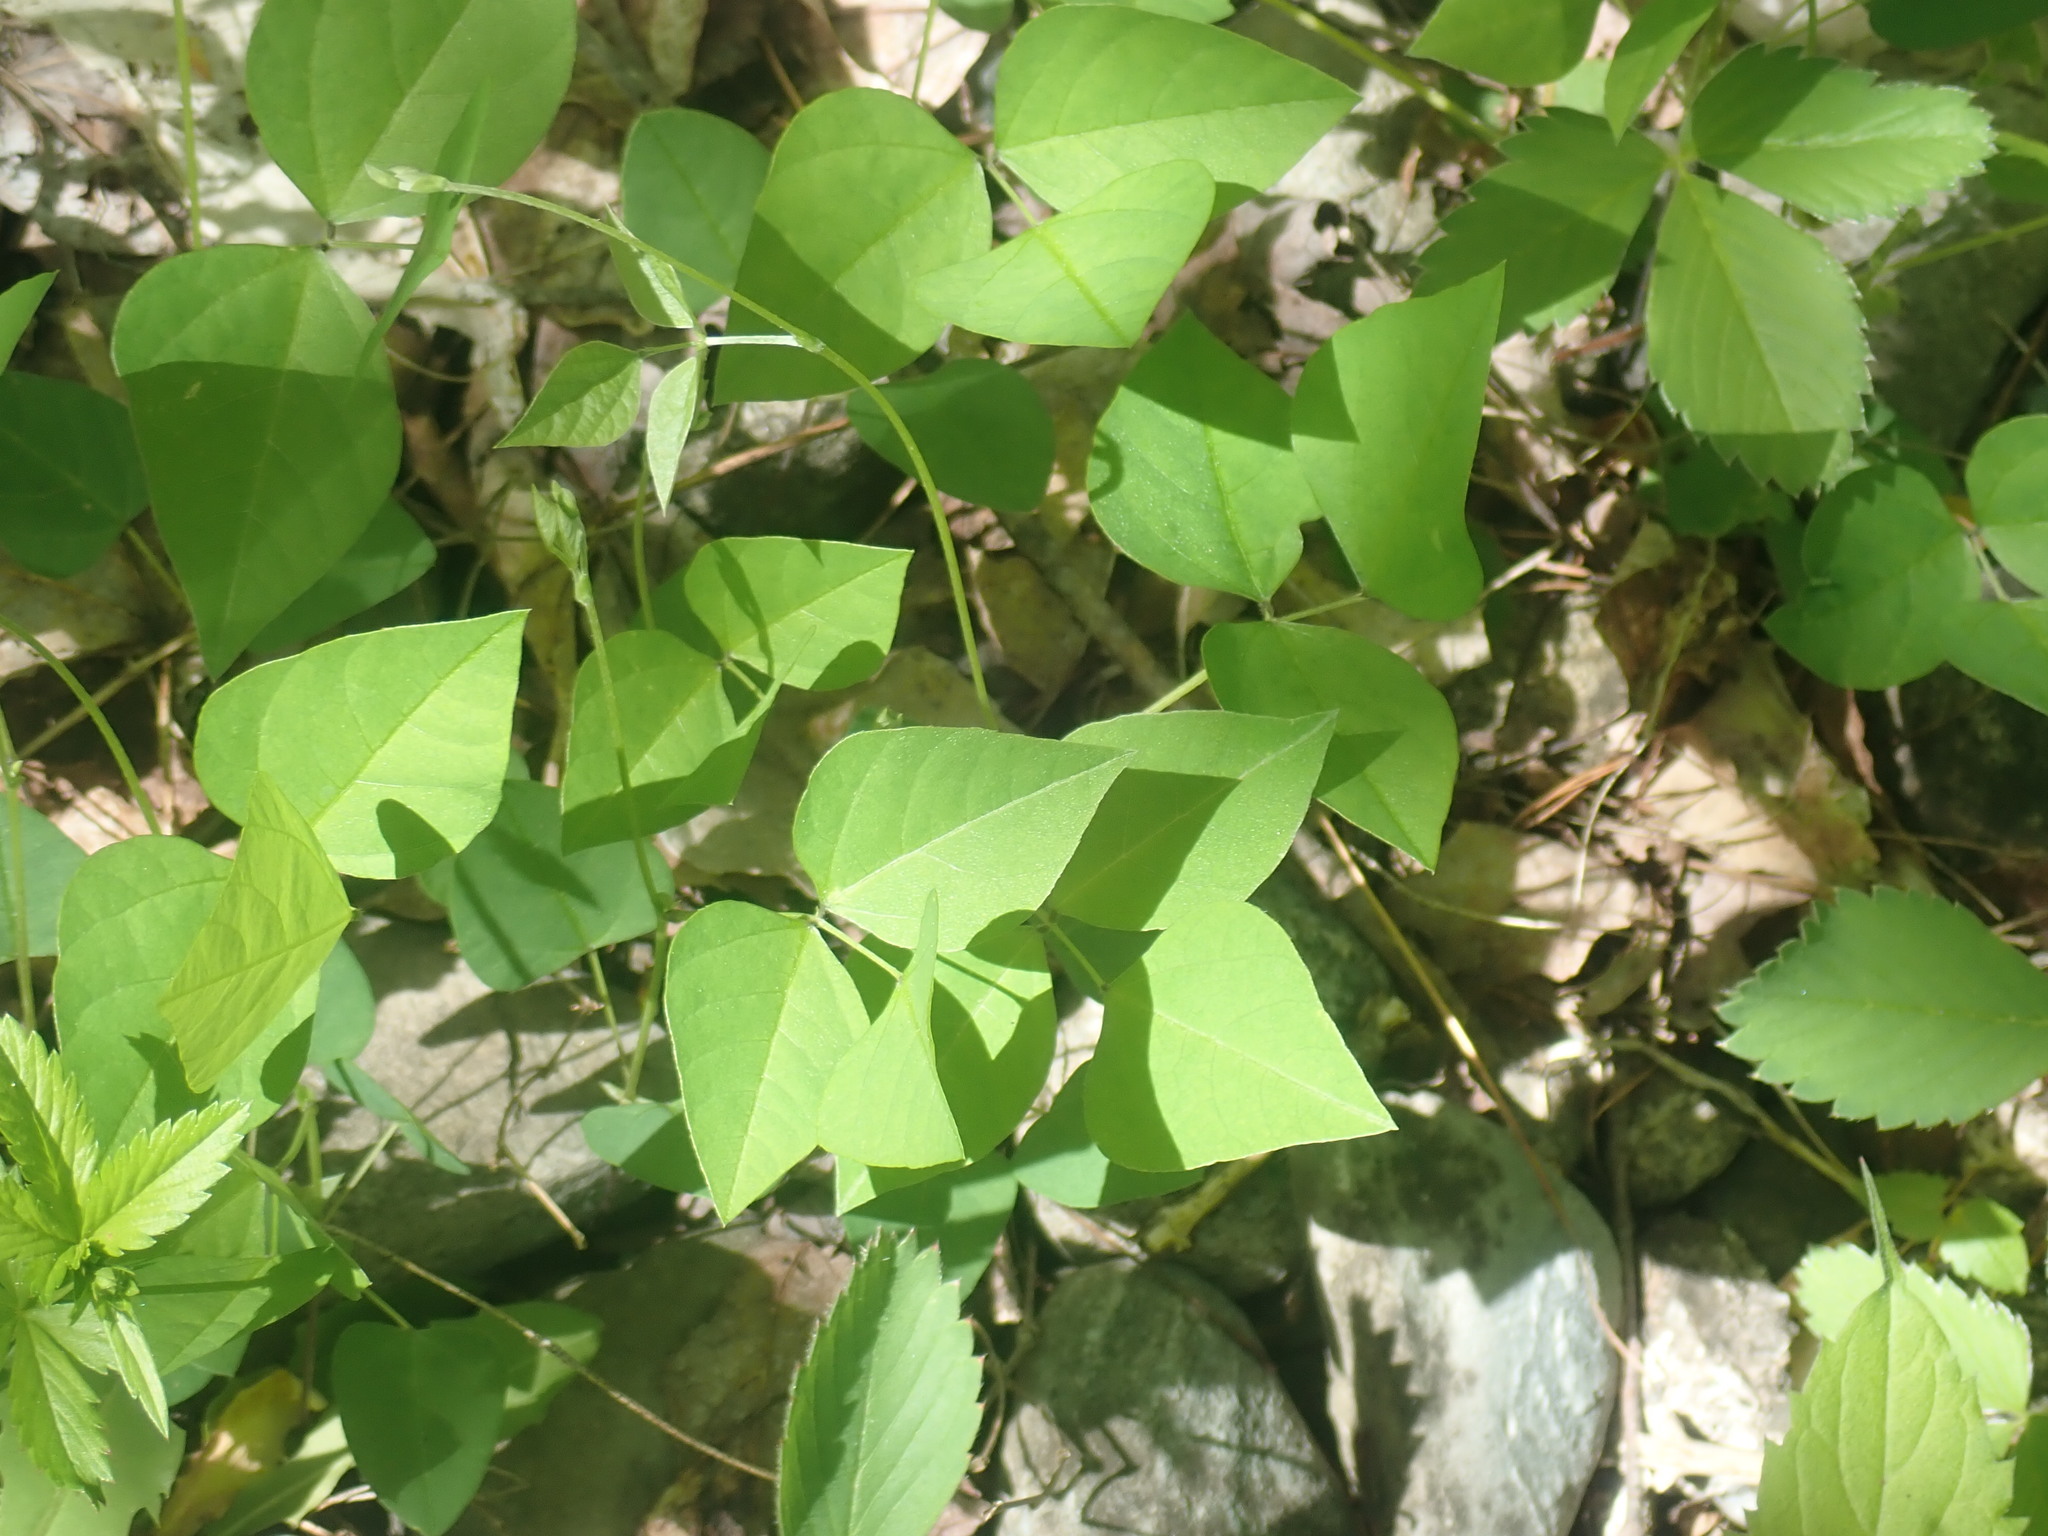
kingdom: Plantae
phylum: Tracheophyta
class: Magnoliopsida
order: Fabales
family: Fabaceae
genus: Amphicarpaea
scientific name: Amphicarpaea bracteata
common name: American hog peanut
